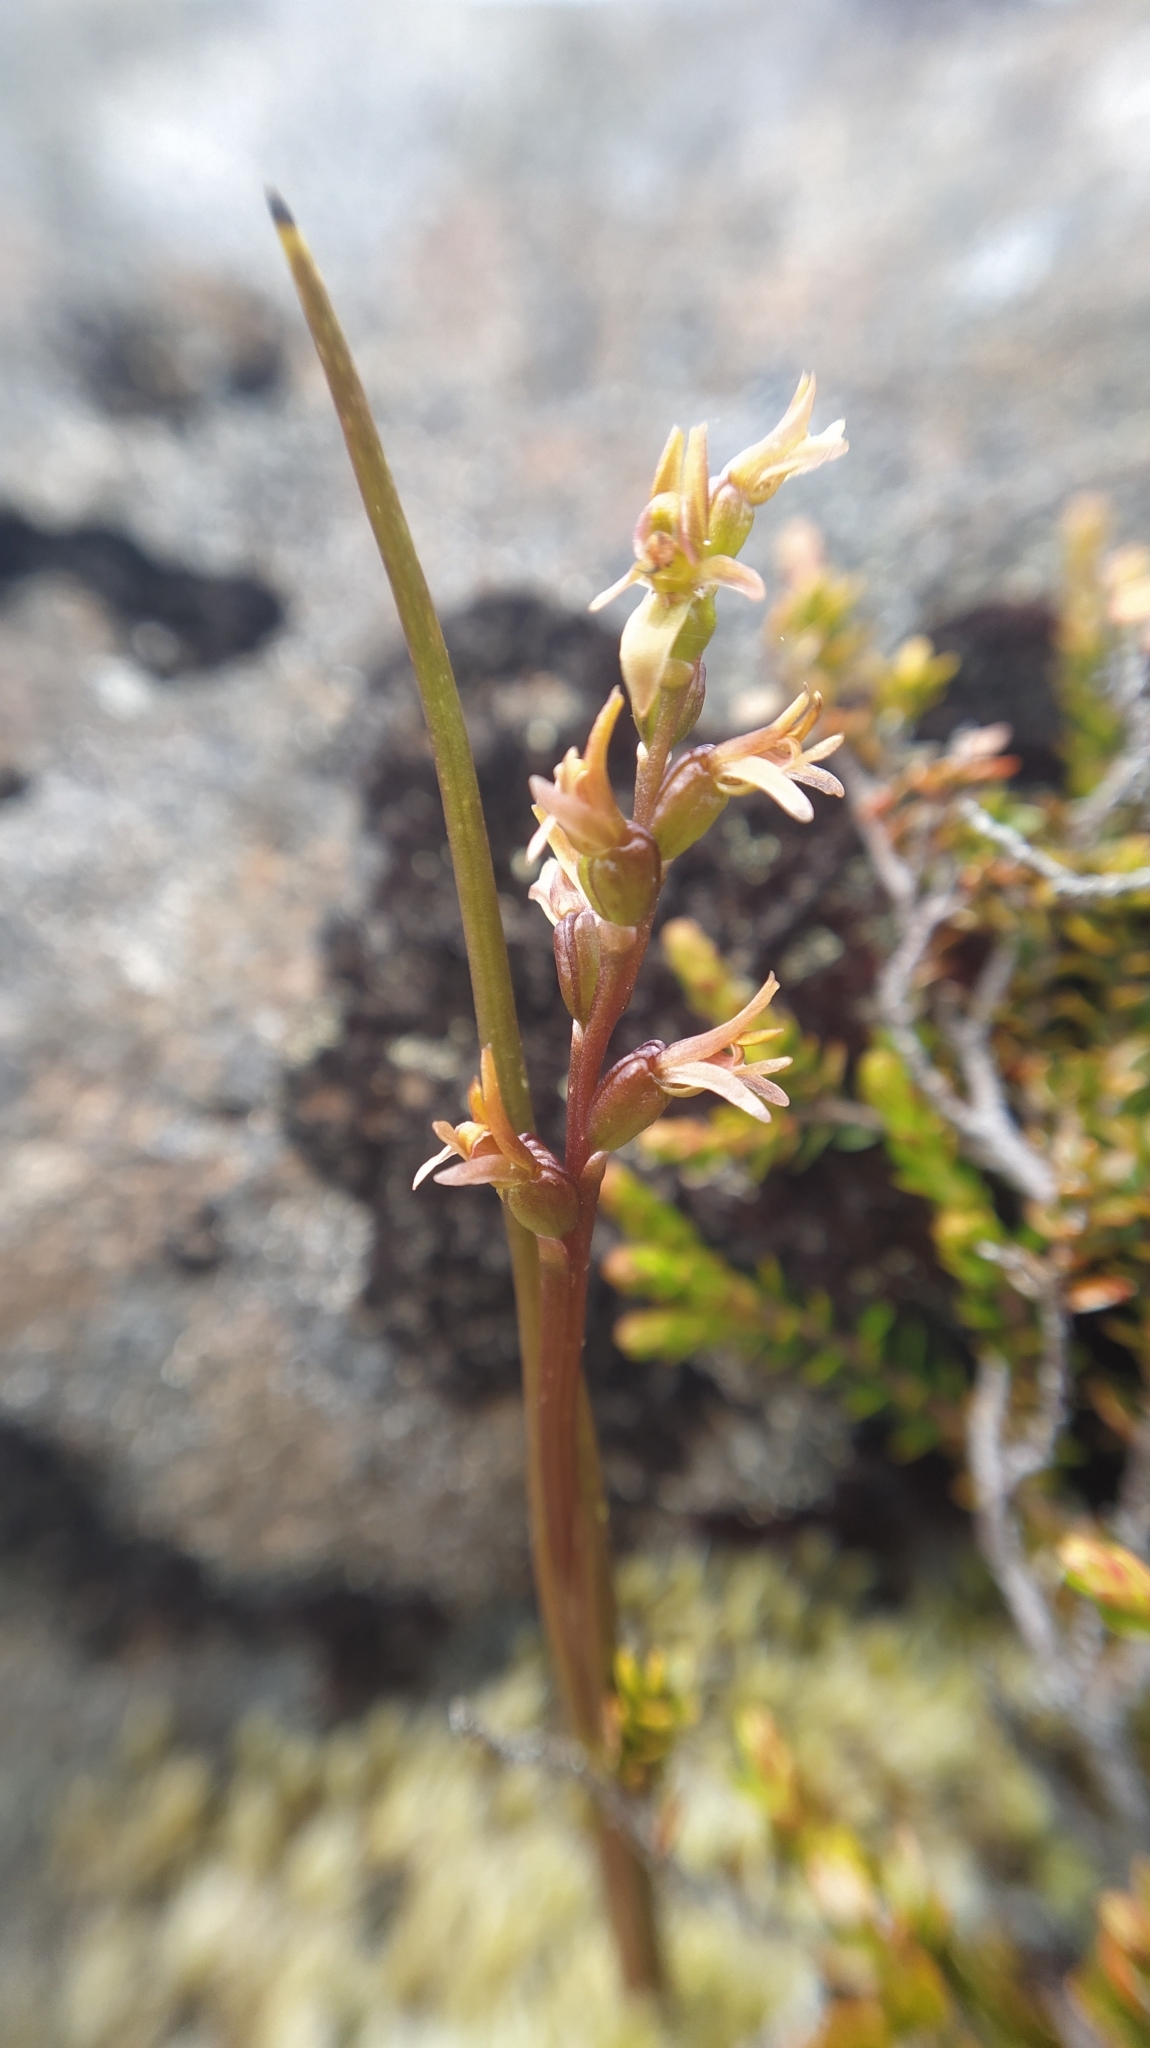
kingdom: Plantae
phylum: Tracheophyta
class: Liliopsida
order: Asparagales
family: Orchidaceae
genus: Prasophyllum
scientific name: Prasophyllum colensoi
